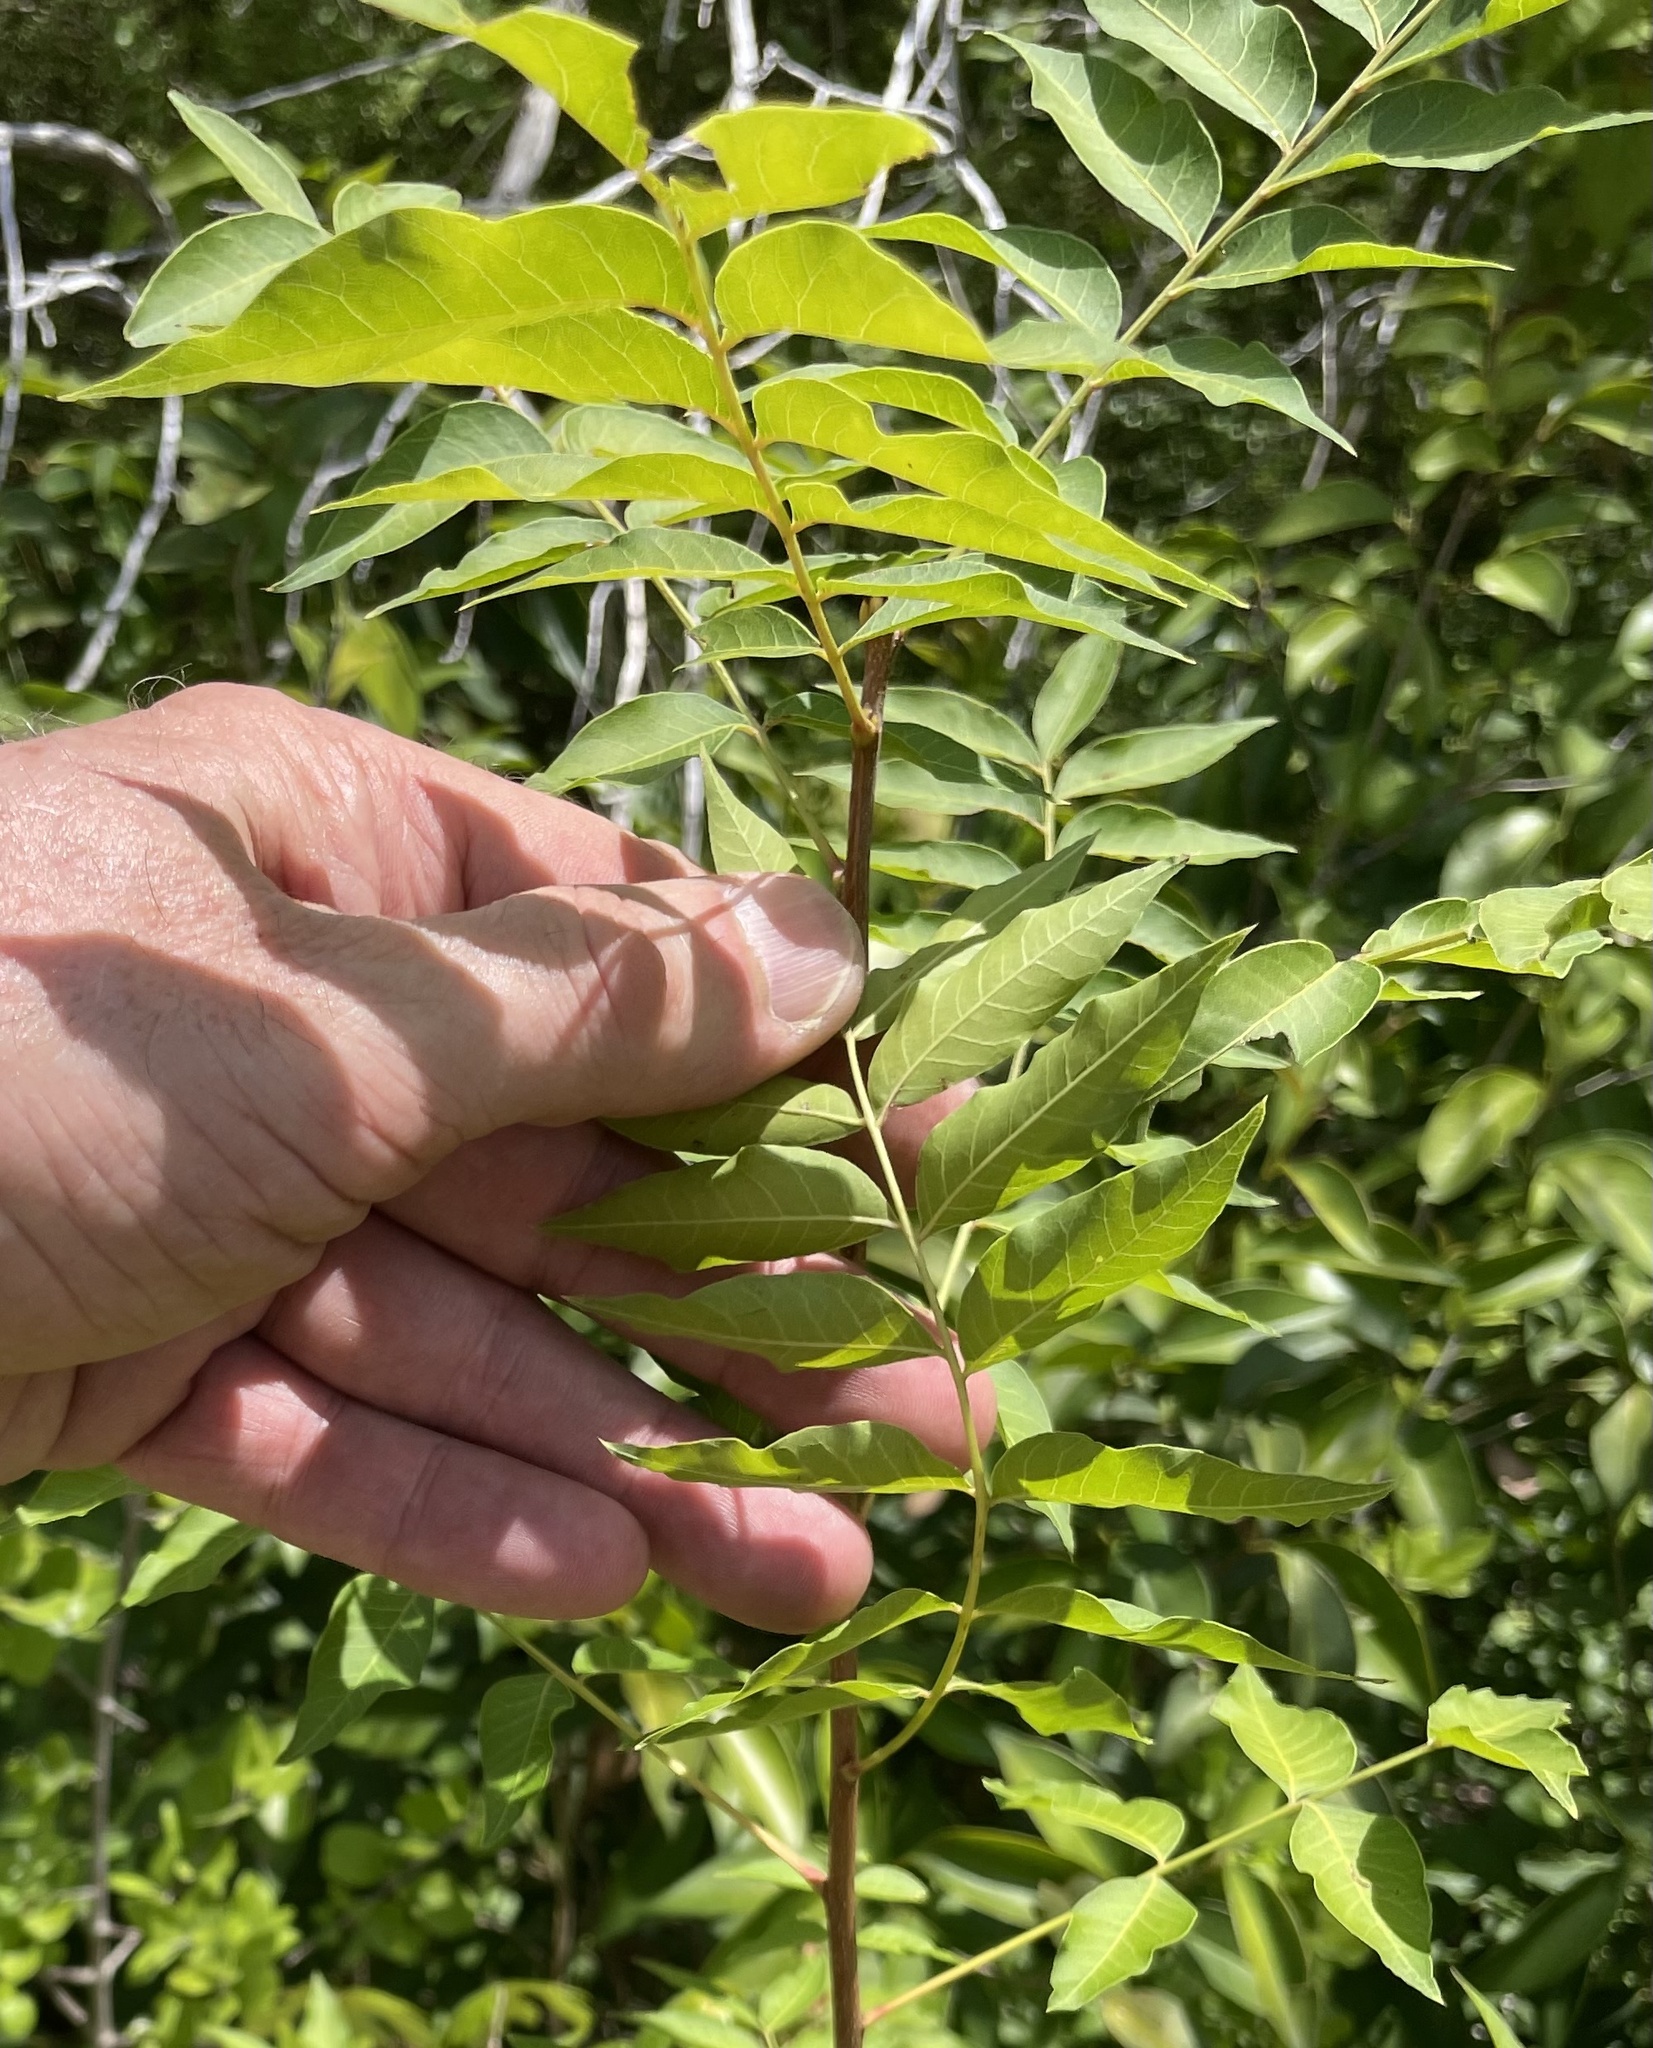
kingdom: Plantae
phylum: Tracheophyta
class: Magnoliopsida
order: Sapindales
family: Anacardiaceae
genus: Pistacia
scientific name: Pistacia chinensis
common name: Chinese pistache
